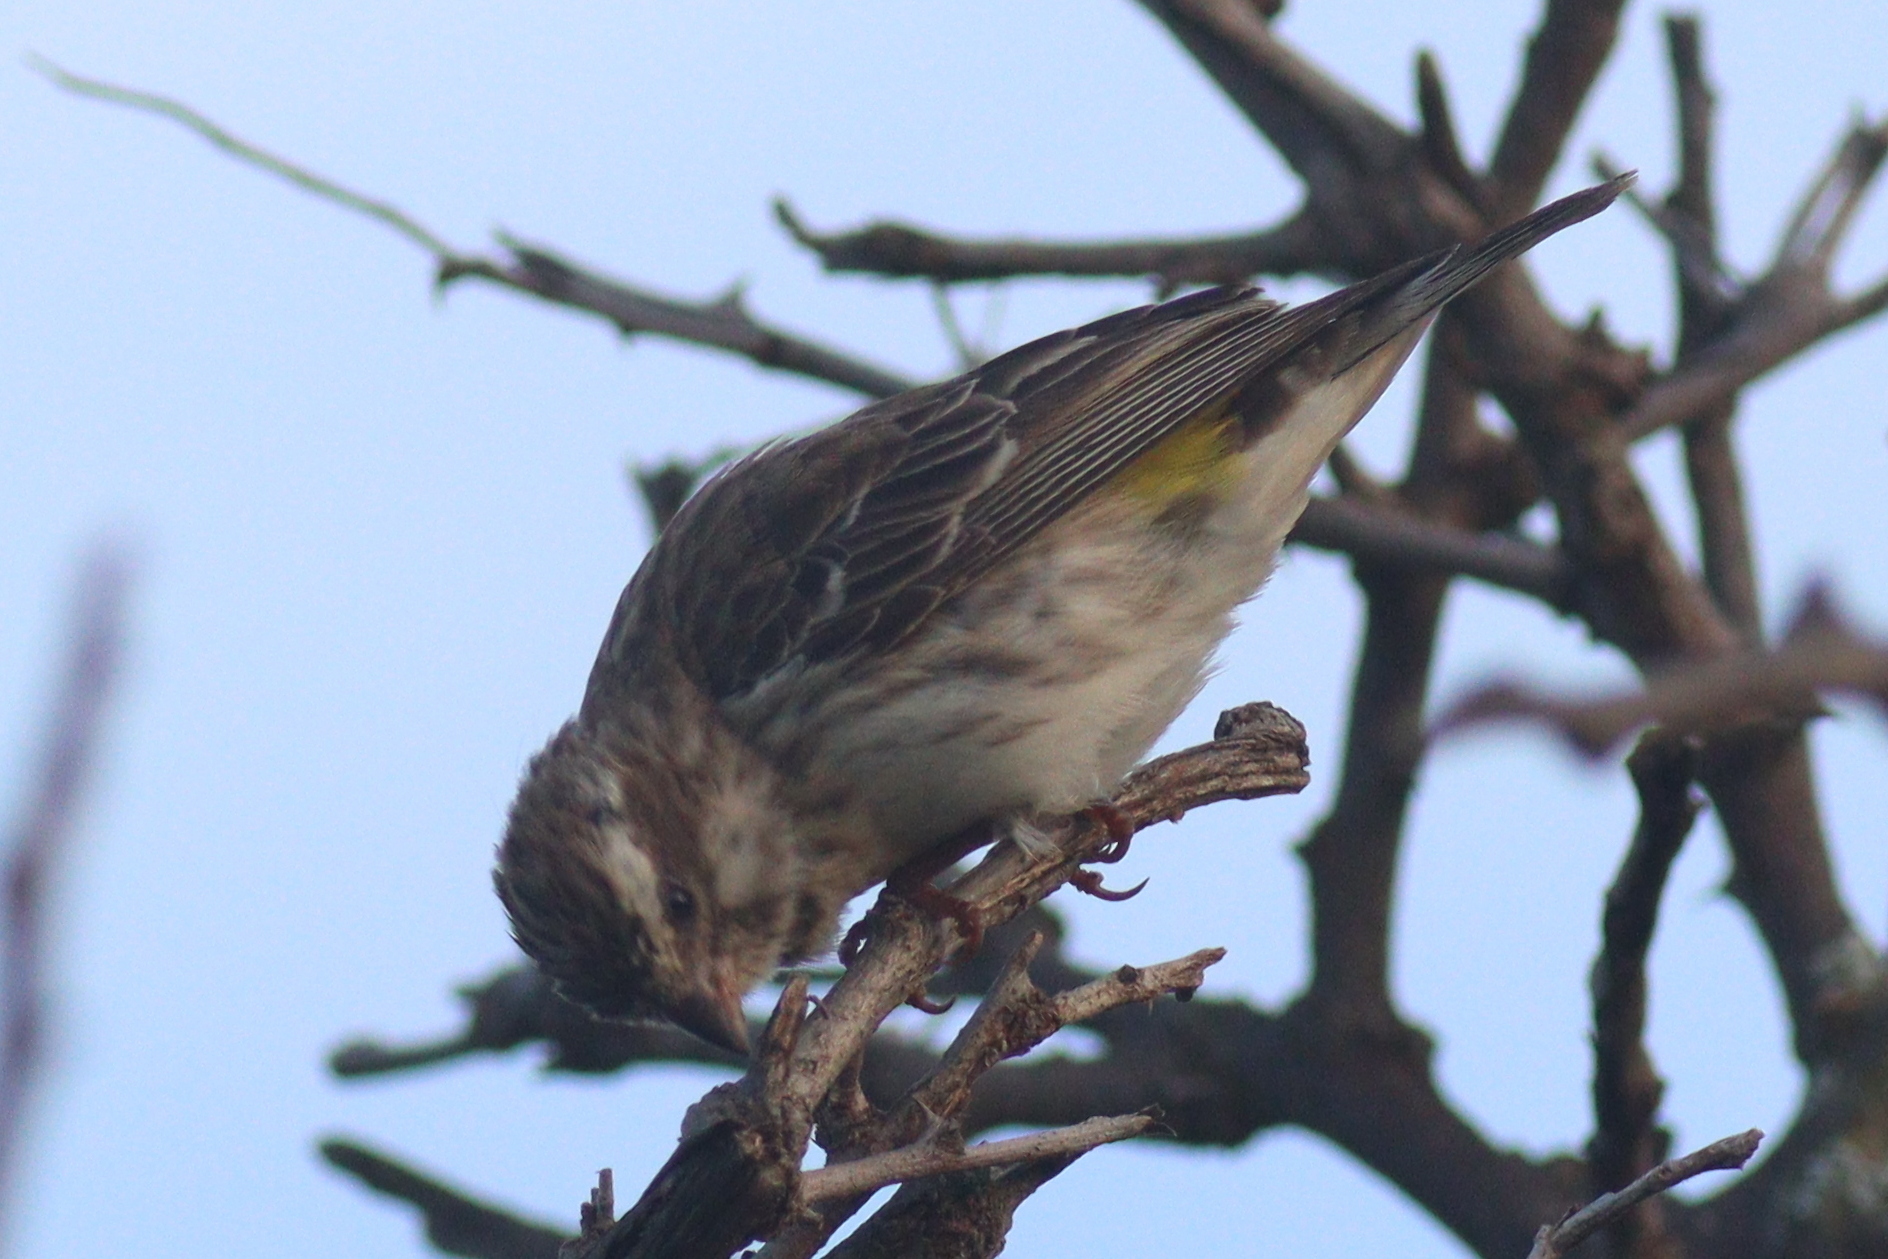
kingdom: Animalia
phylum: Chordata
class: Aves
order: Passeriformes
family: Fringillidae
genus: Crithagra
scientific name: Crithagra reichenowi
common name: Reichenow's seedeater
